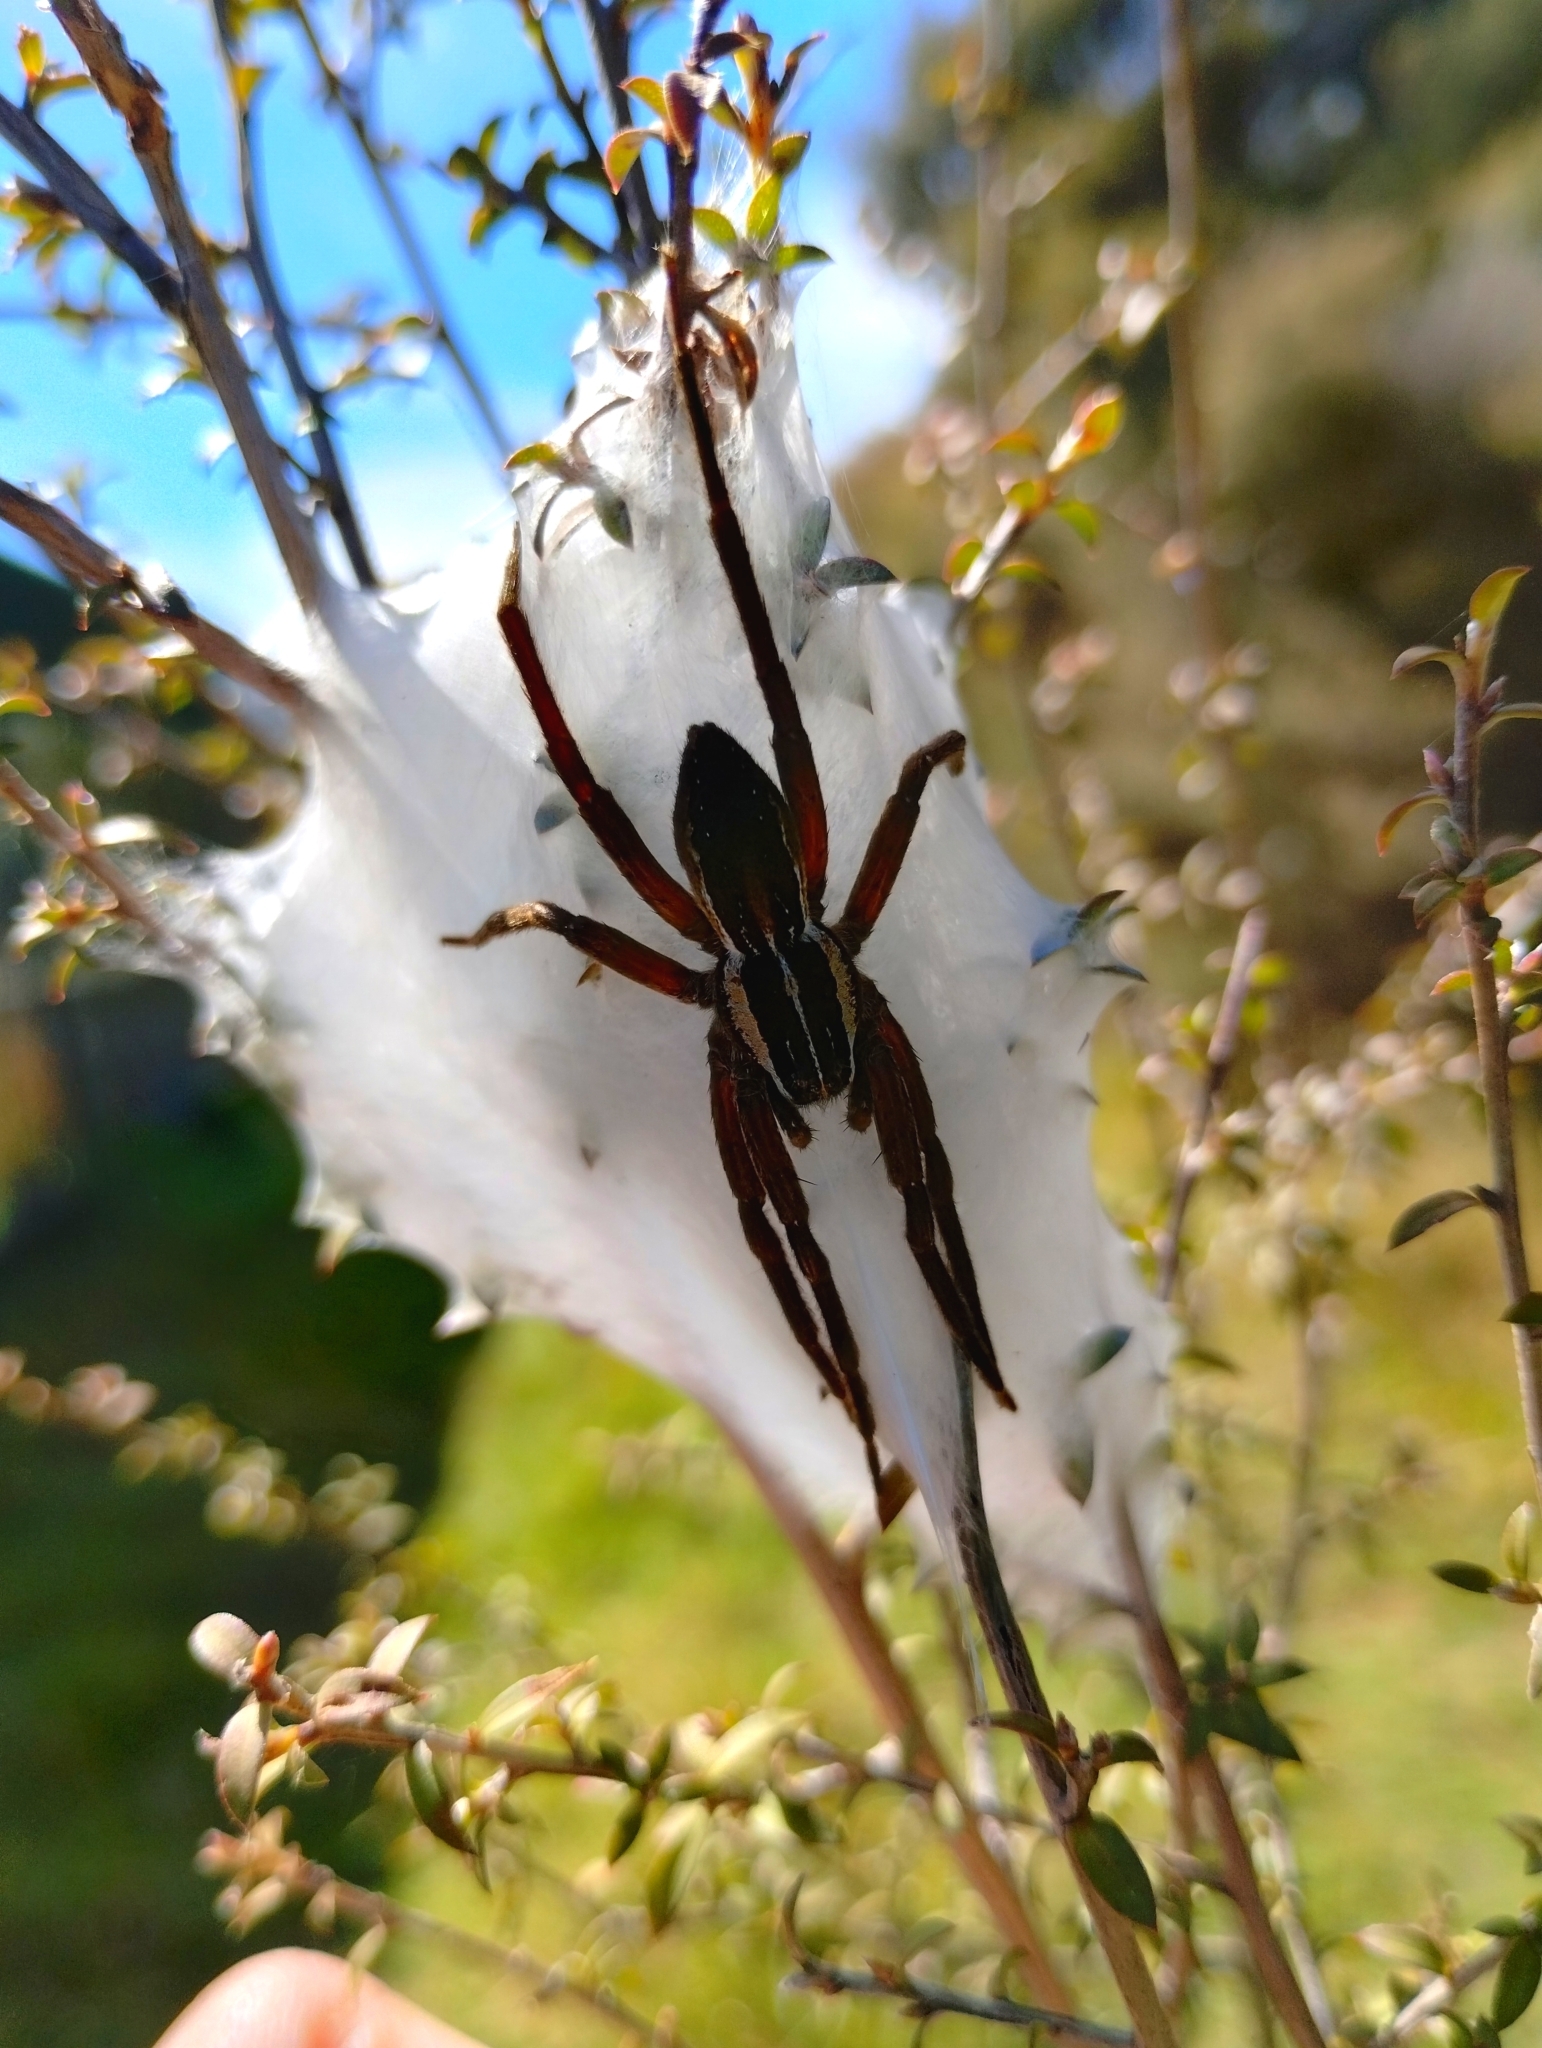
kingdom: Animalia
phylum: Arthropoda
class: Arachnida
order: Araneae
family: Pisauridae
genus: Dolomedes
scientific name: Dolomedes minor
